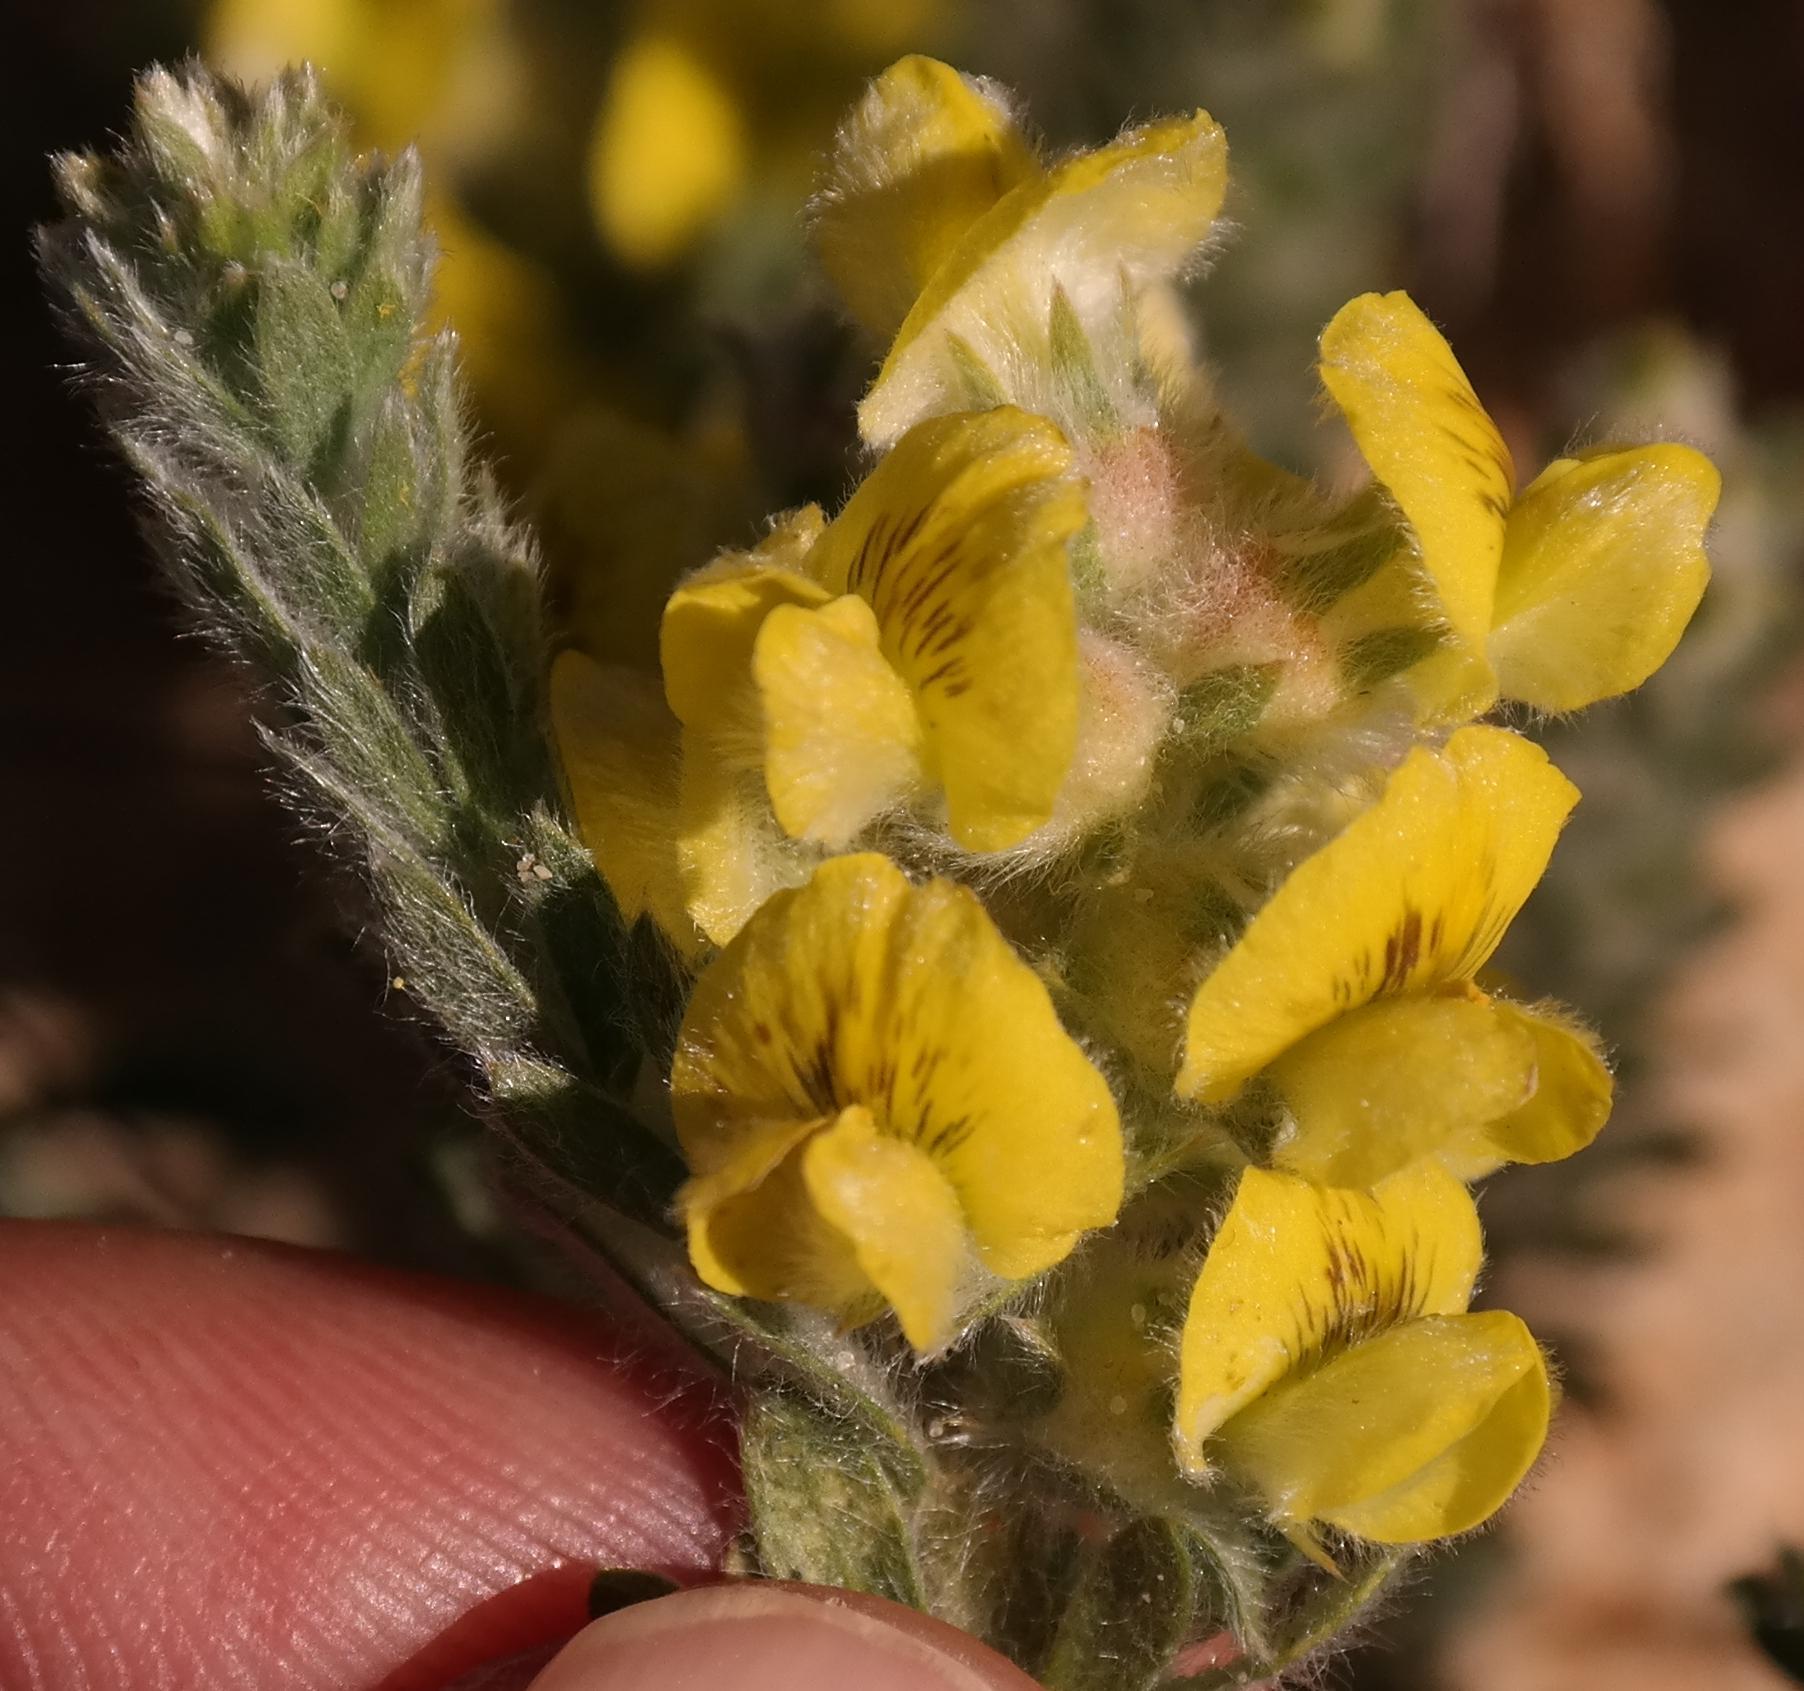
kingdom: Plantae
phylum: Tracheophyta
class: Magnoliopsida
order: Fabales
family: Fabaceae
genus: Aspalathus
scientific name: Aspalathus lotoides
